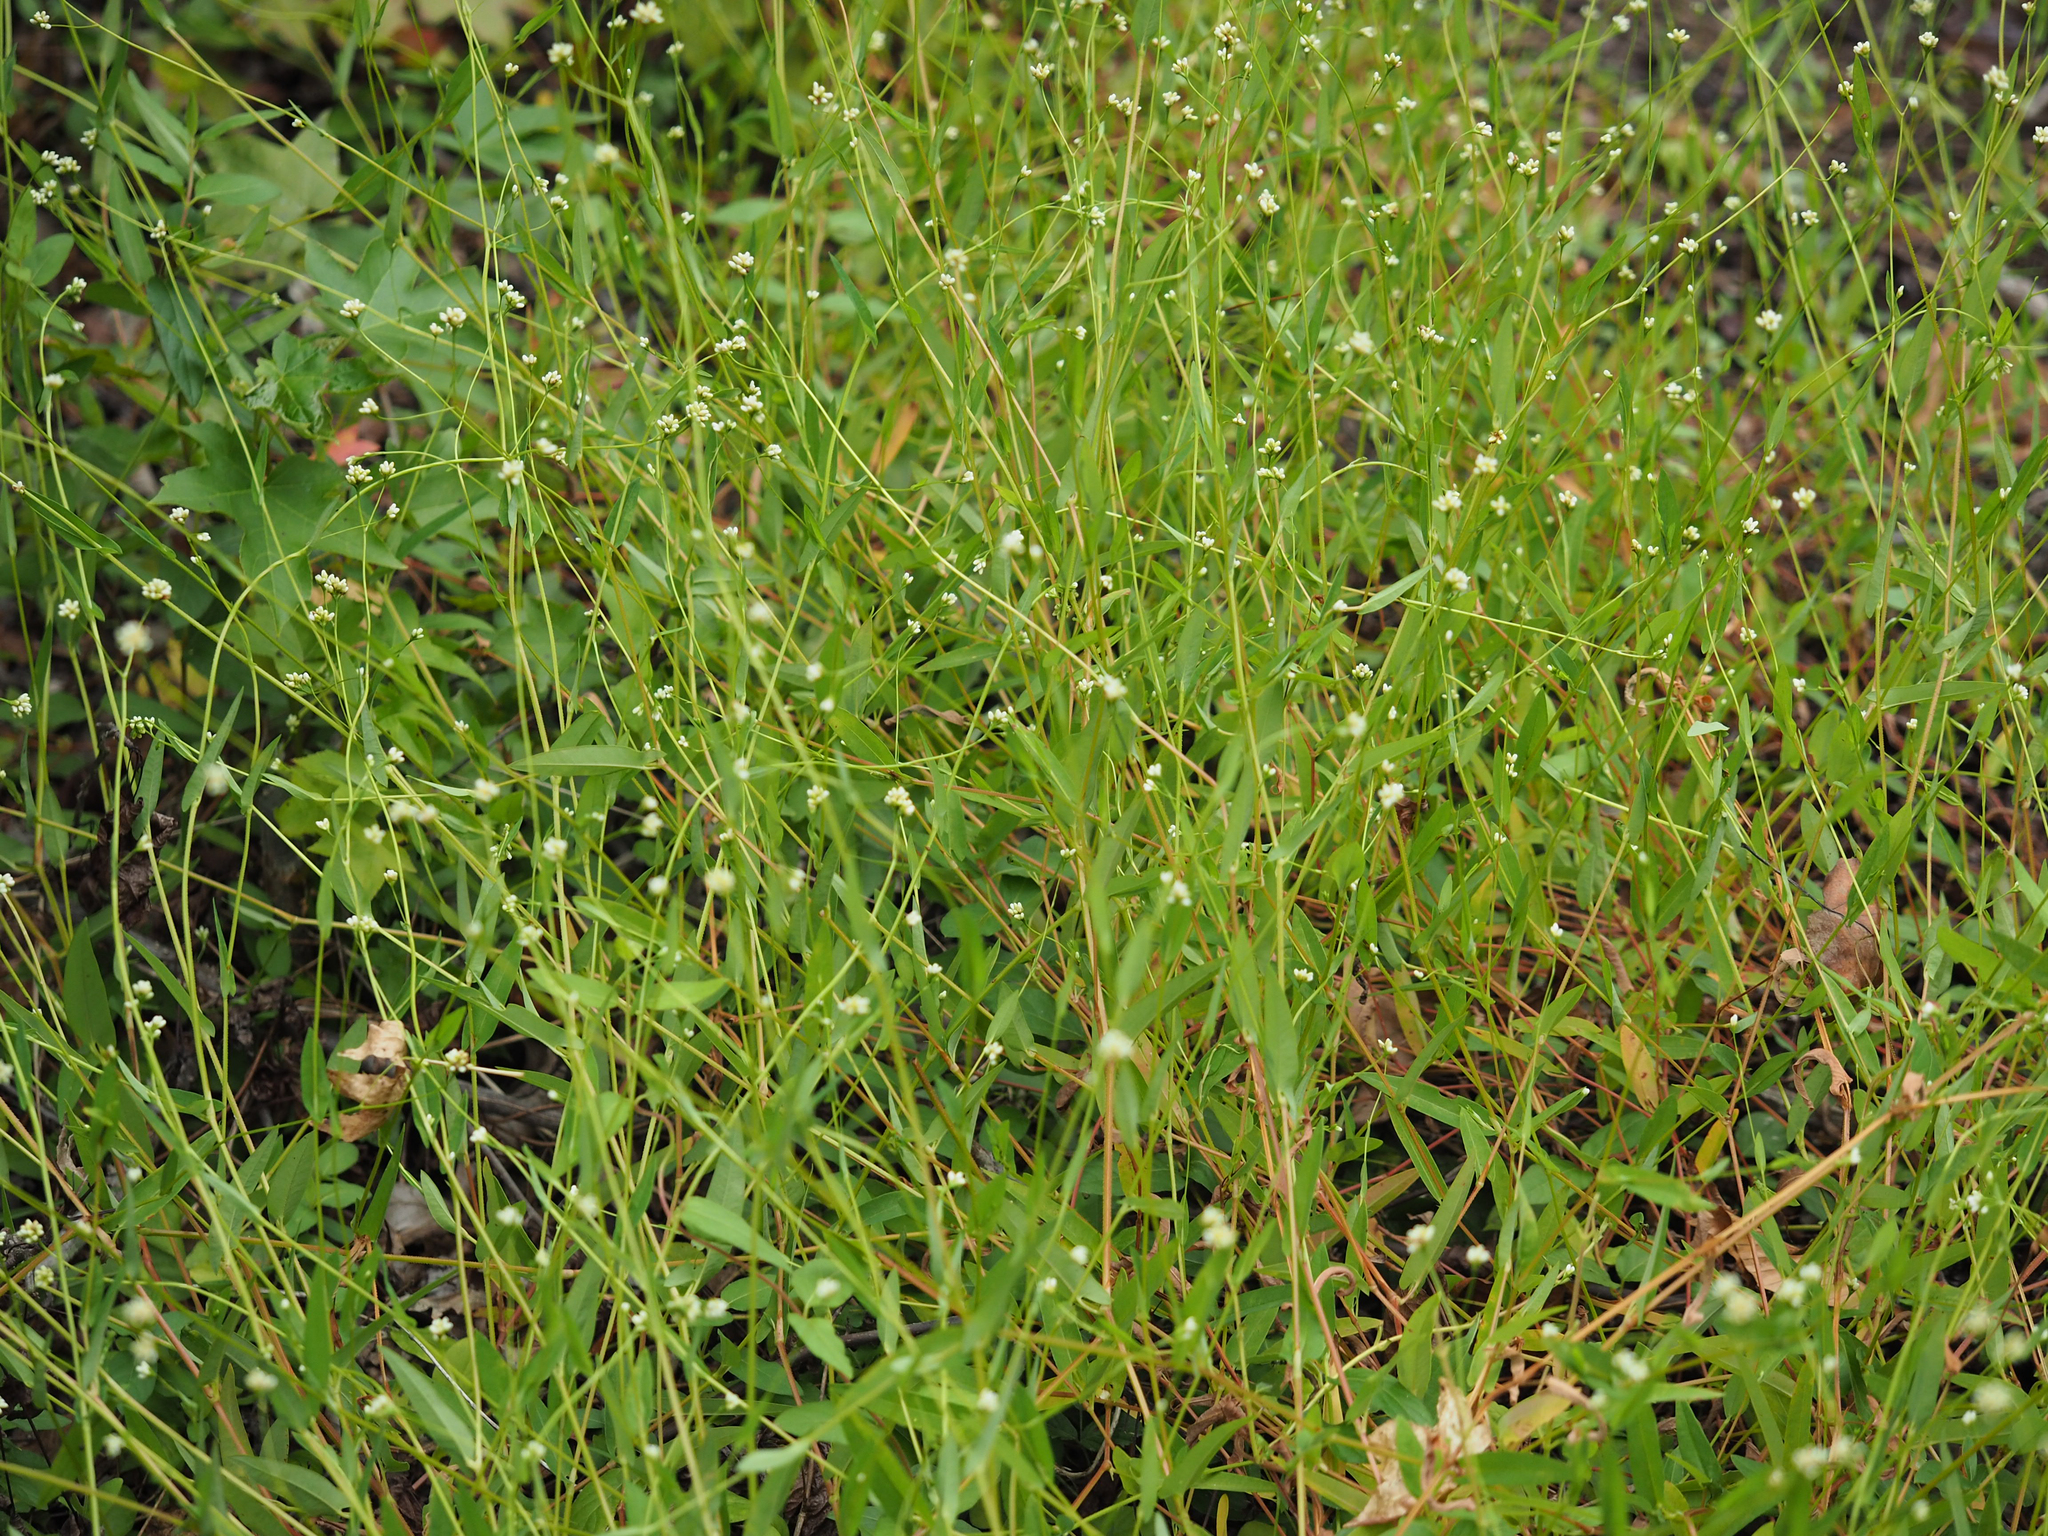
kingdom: Plantae
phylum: Tracheophyta
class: Magnoliopsida
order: Caryophyllales
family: Polygonaceae
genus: Persicaria
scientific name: Persicaria sagittata
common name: American tearthumb
